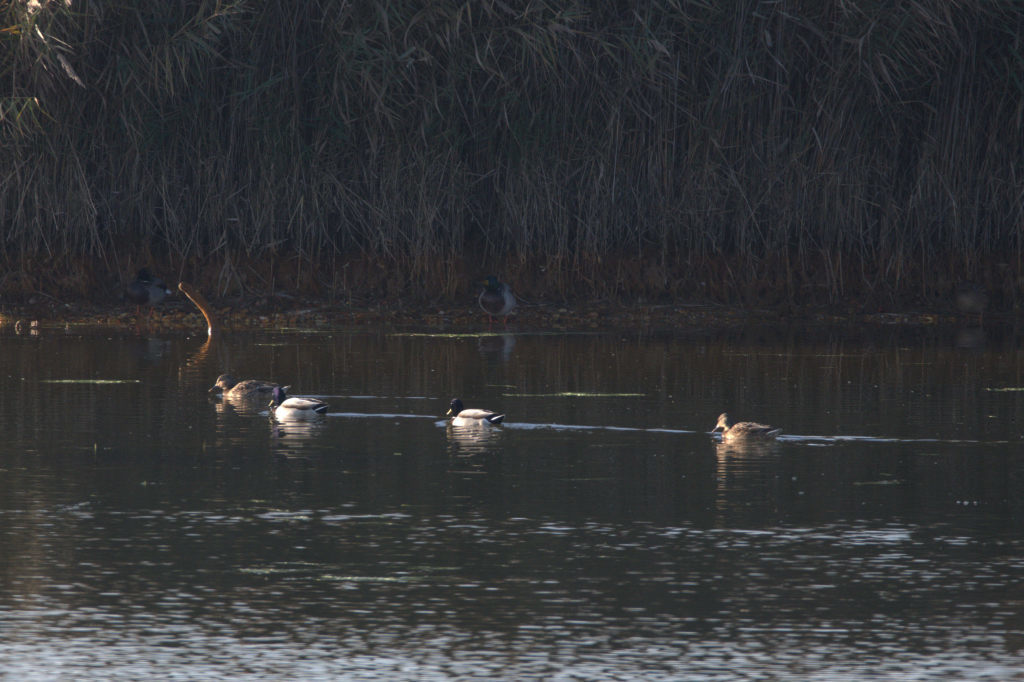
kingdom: Animalia
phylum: Chordata
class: Aves
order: Anseriformes
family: Anatidae
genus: Anas
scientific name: Anas platyrhynchos
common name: Mallard
